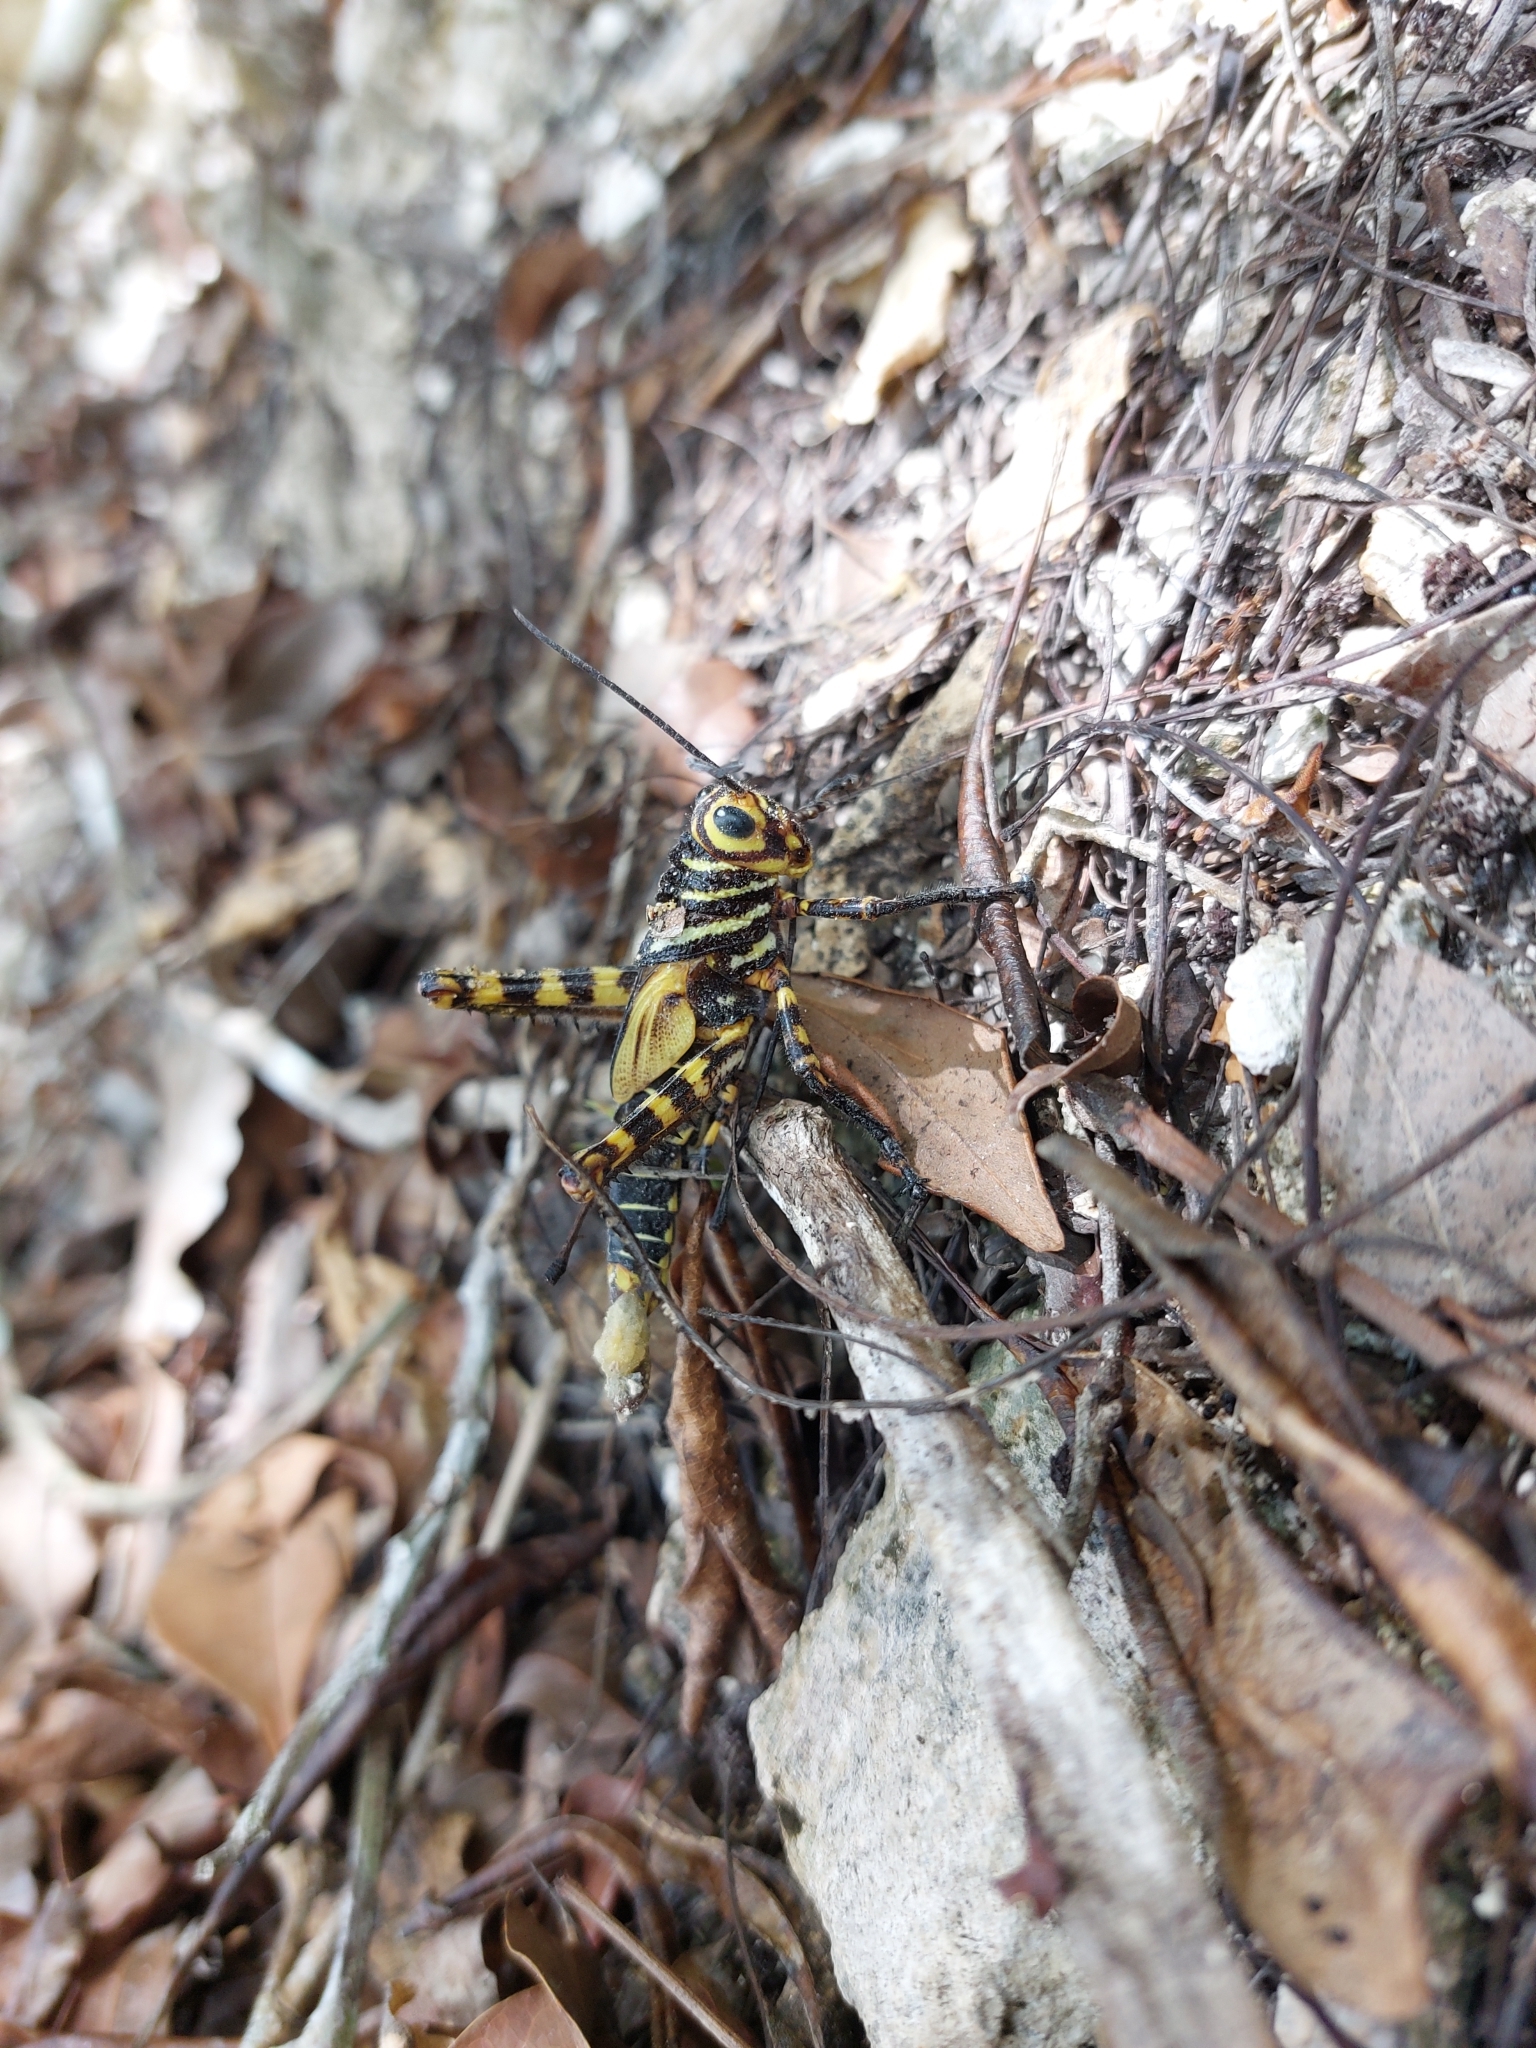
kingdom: Animalia
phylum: Arthropoda
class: Insecta
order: Orthoptera
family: Romaleidae
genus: Tropidacris
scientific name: Tropidacris cristata
